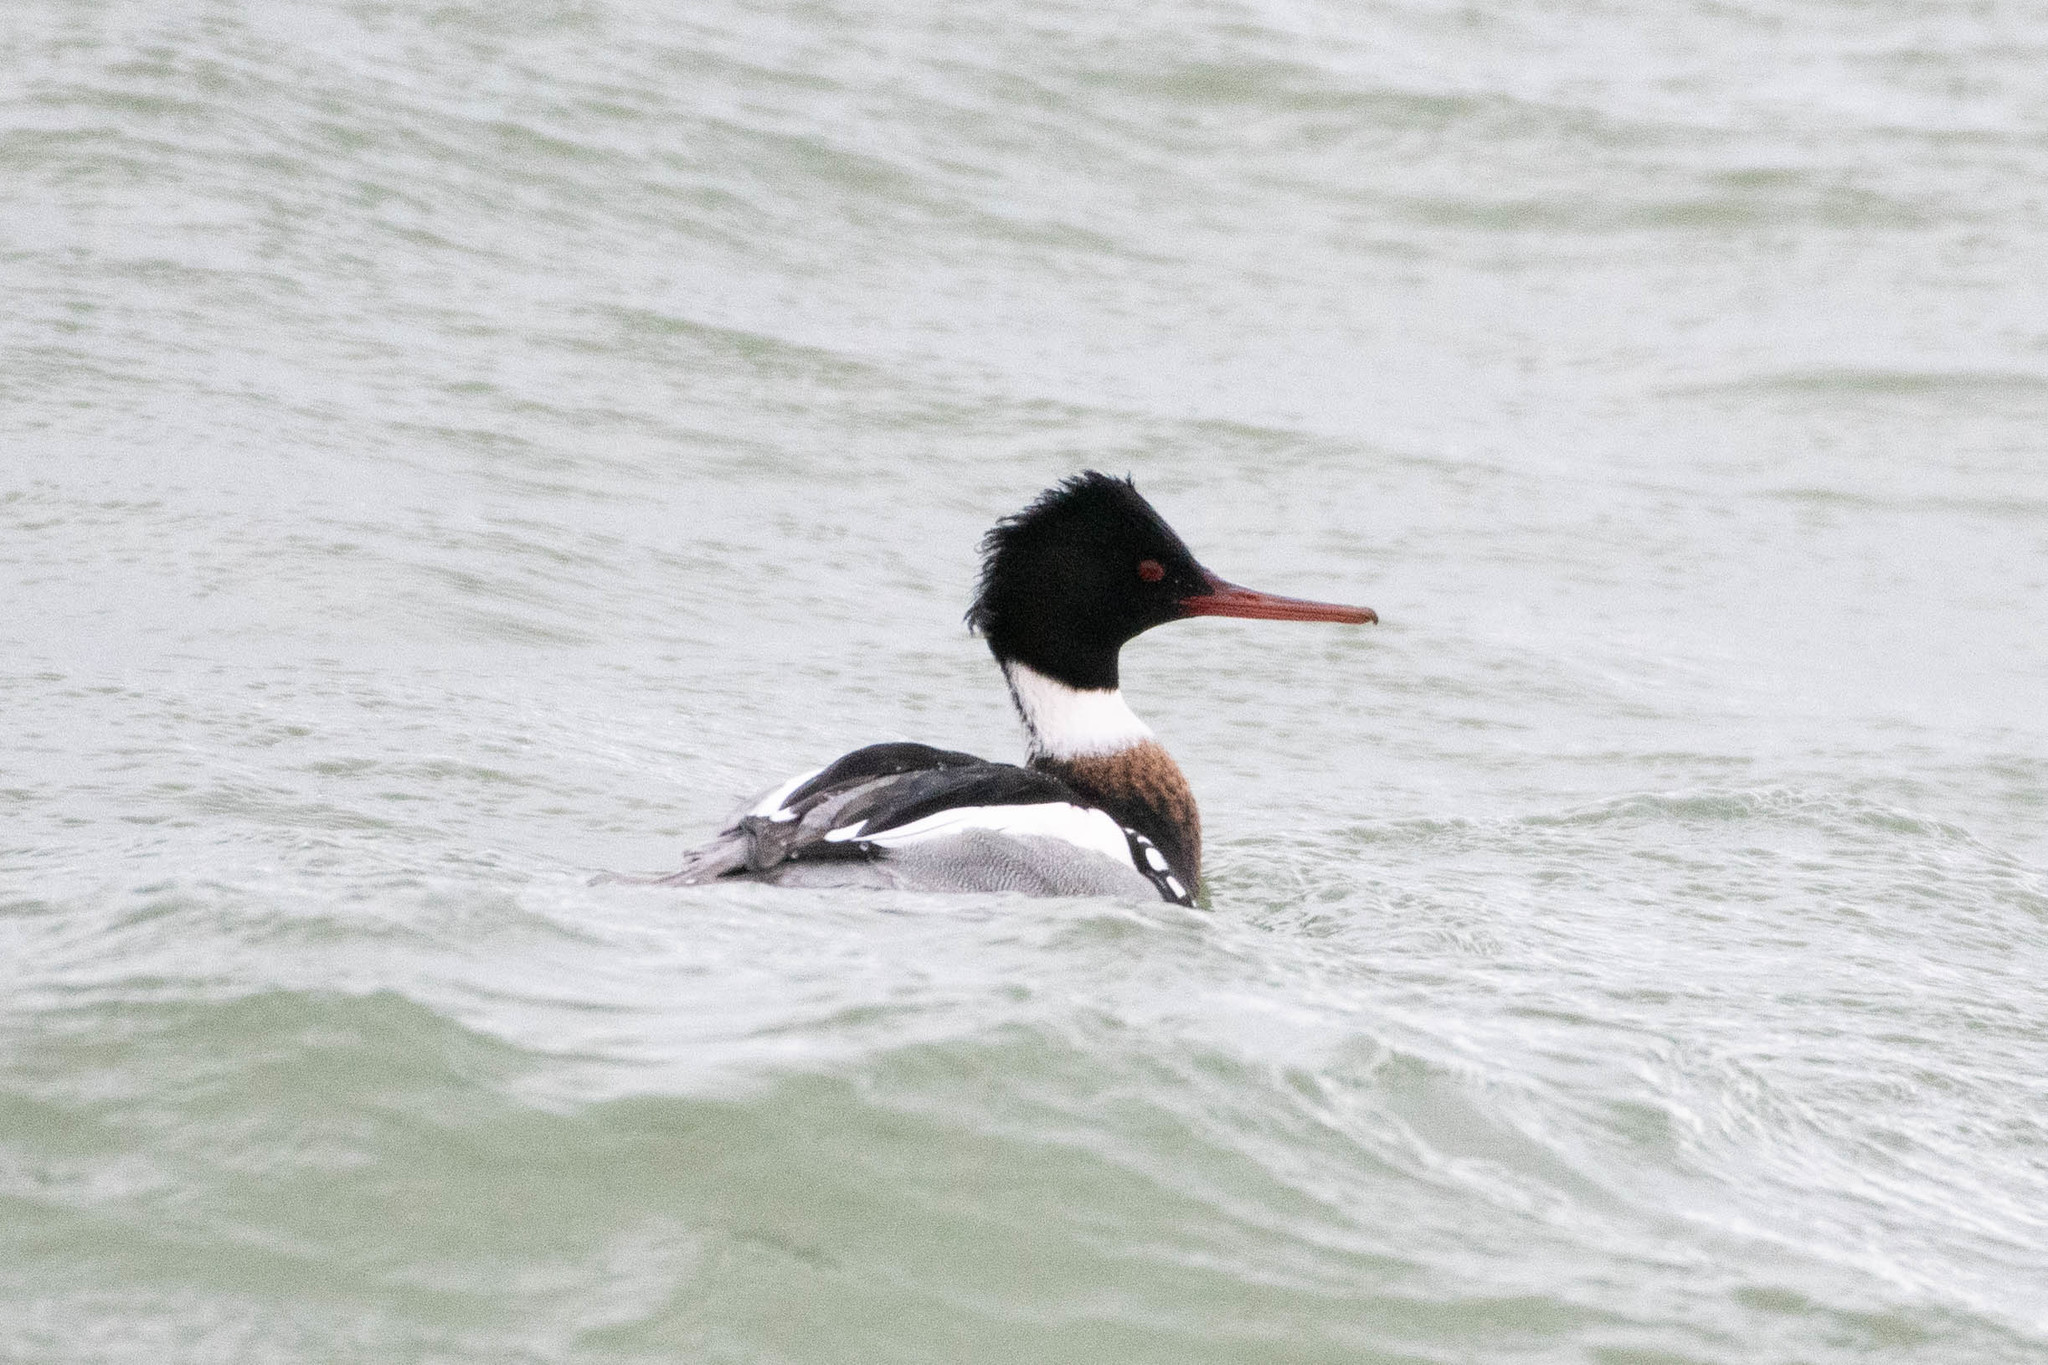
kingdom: Animalia
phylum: Chordata
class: Aves
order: Anseriformes
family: Anatidae
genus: Mergus
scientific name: Mergus serrator
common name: Red-breasted merganser
